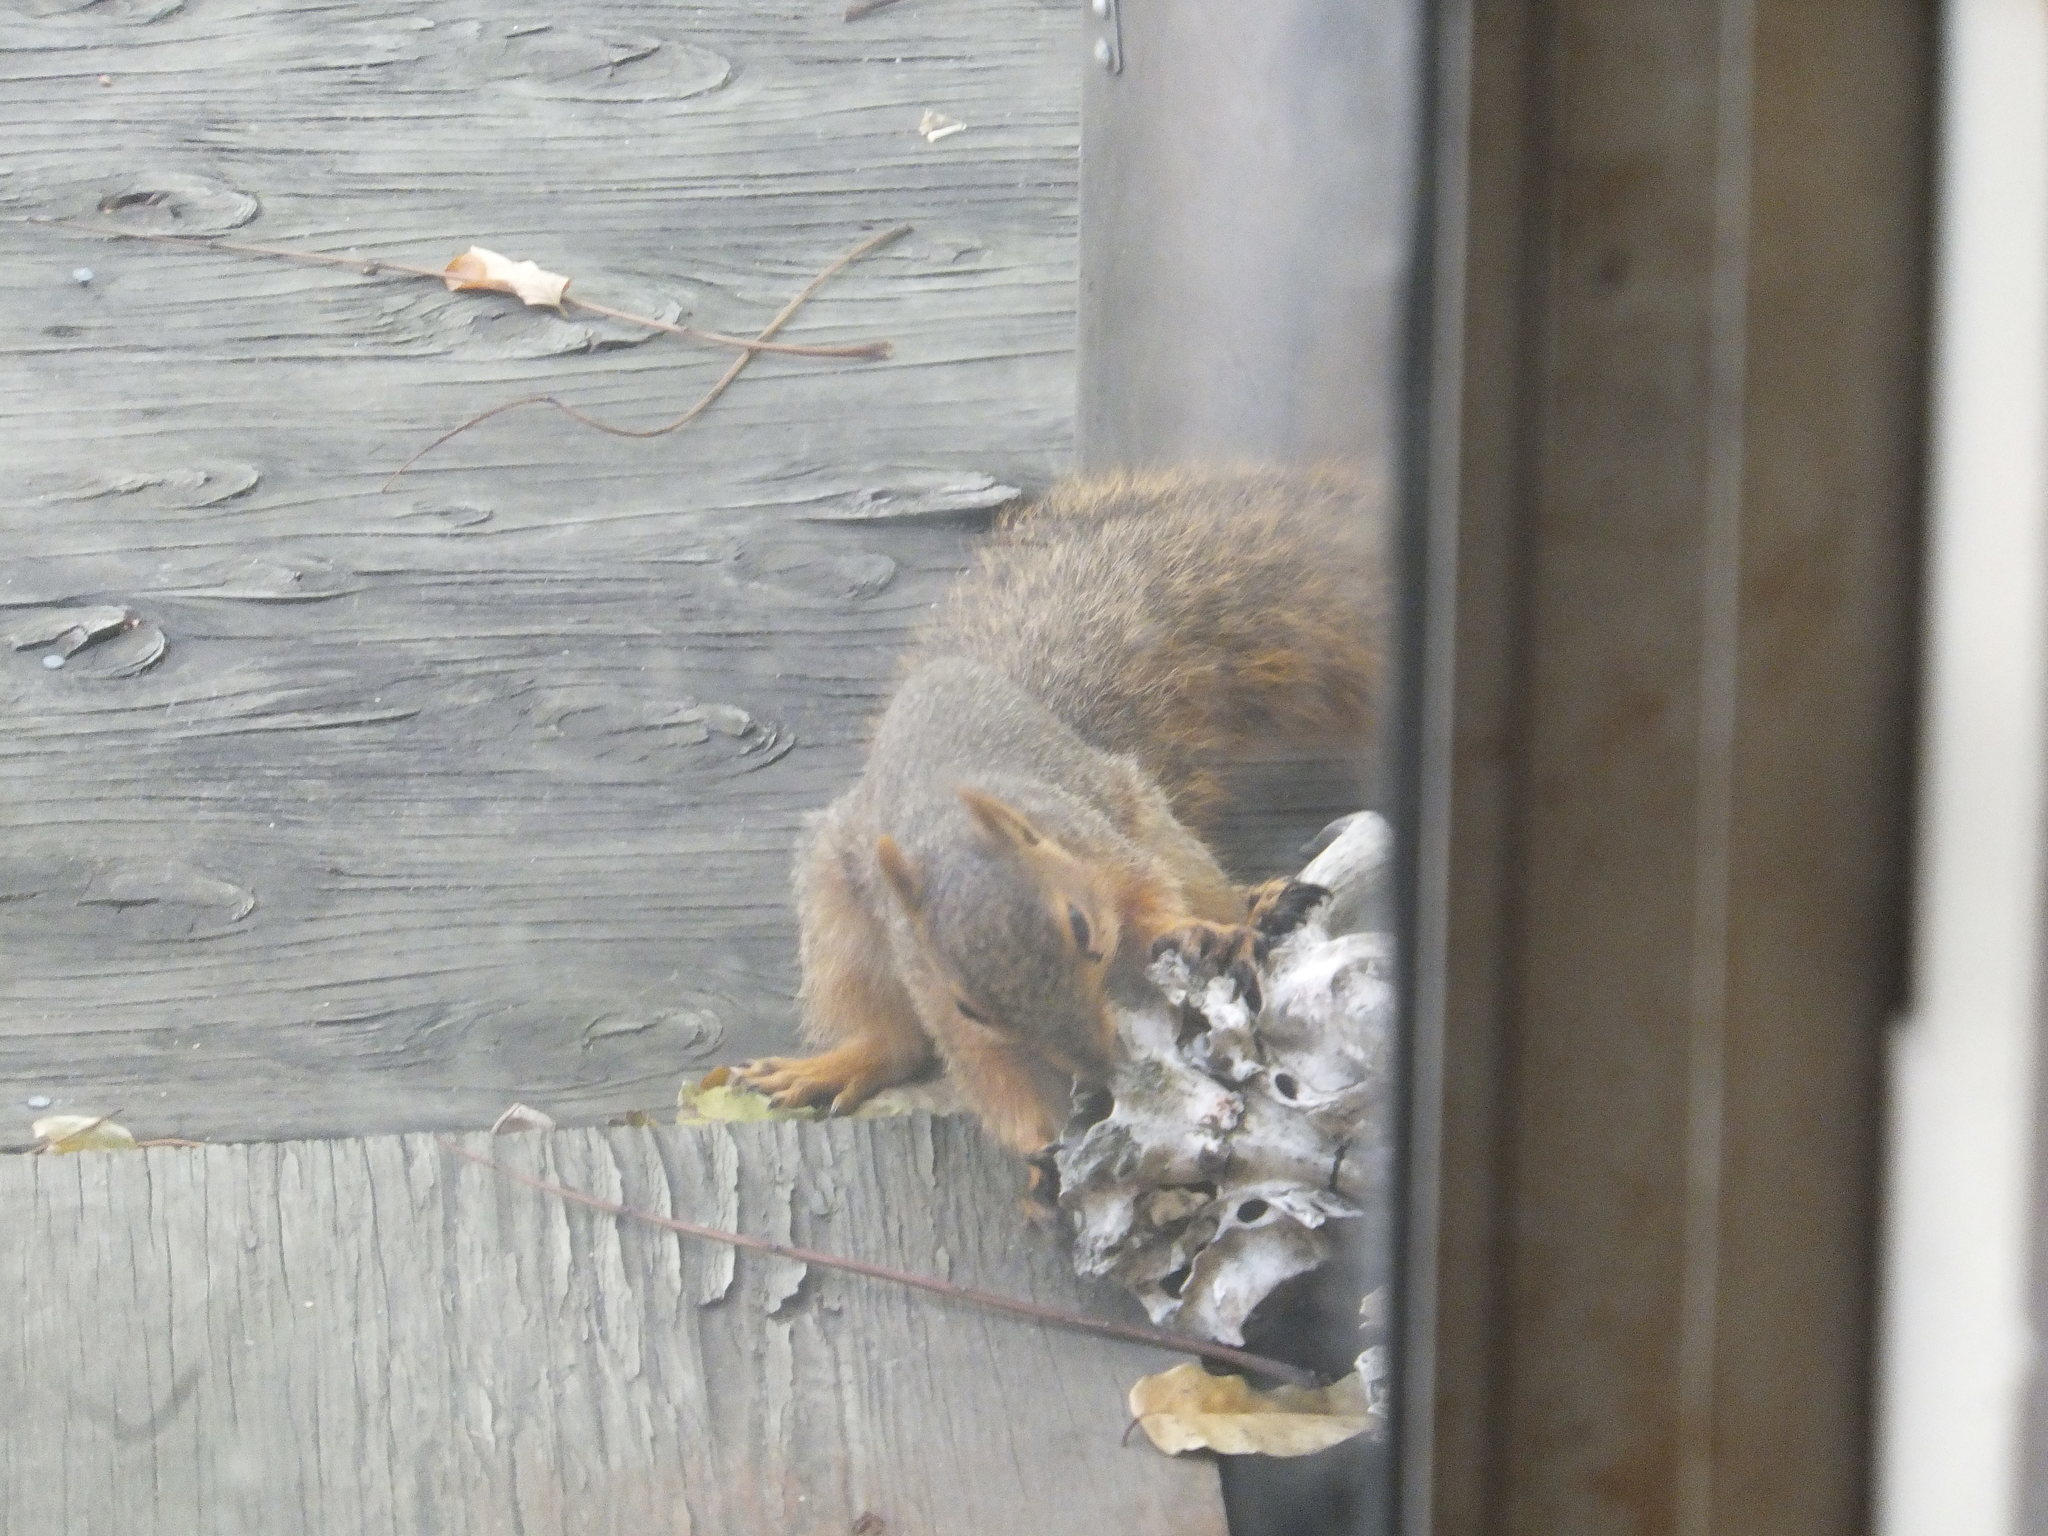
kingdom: Animalia
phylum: Chordata
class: Mammalia
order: Rodentia
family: Sciuridae
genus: Sciurus
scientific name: Sciurus niger
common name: Fox squirrel
